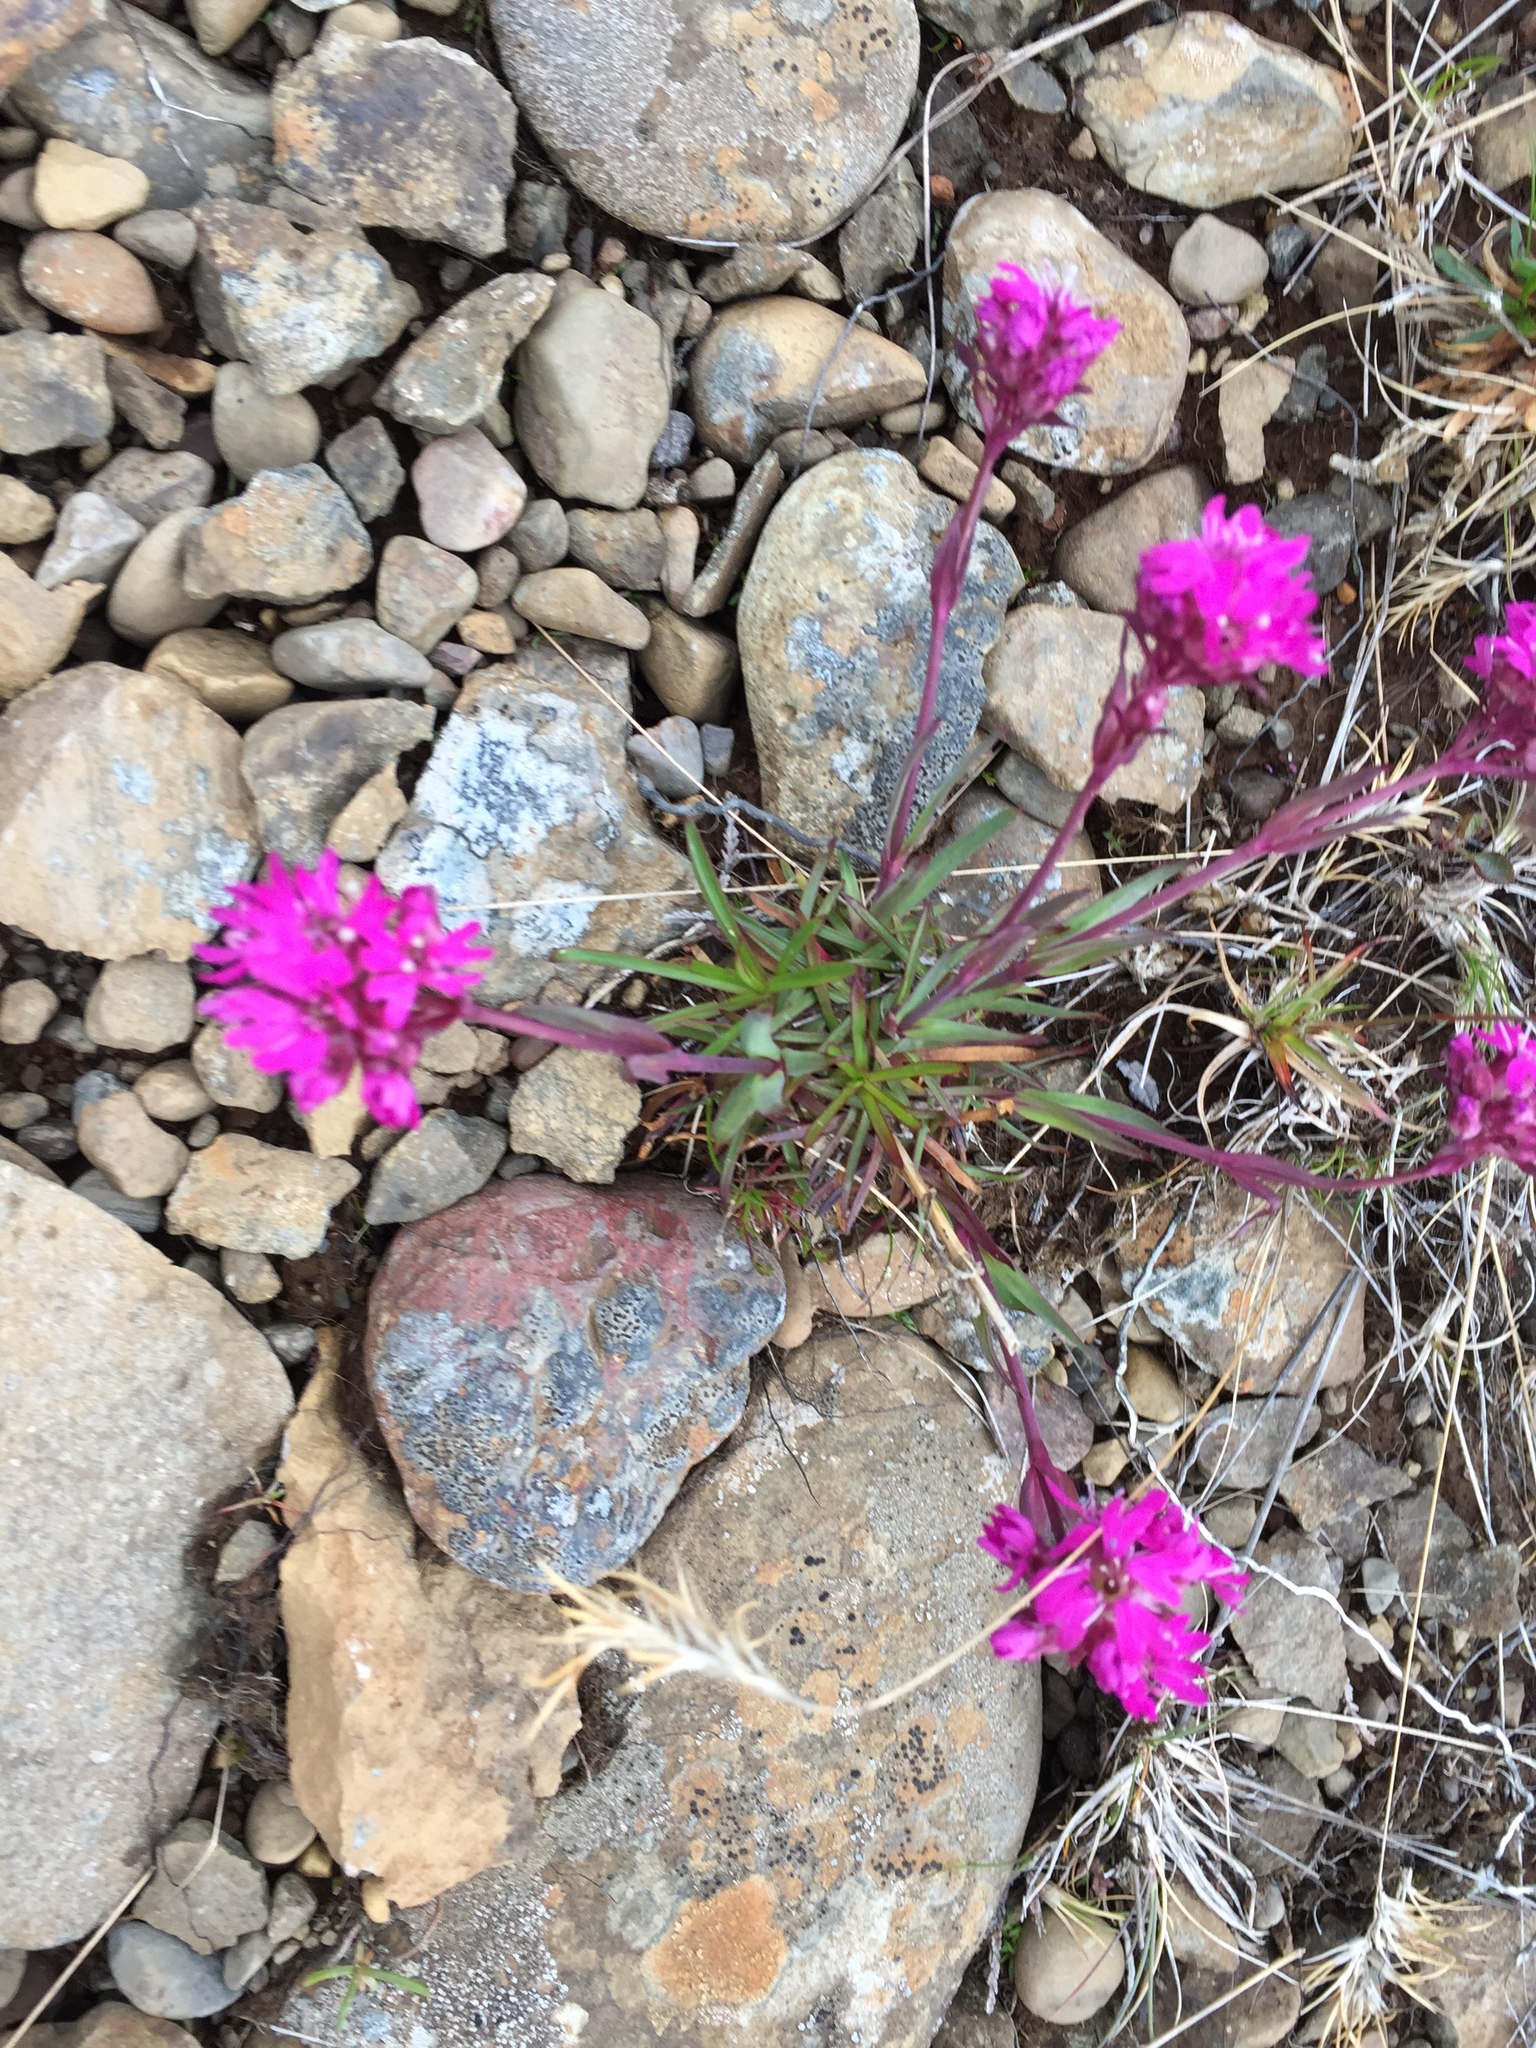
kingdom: Plantae
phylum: Tracheophyta
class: Magnoliopsida
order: Caryophyllales
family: Caryophyllaceae
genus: Viscaria
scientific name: Viscaria alpina
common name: Alpine campion
